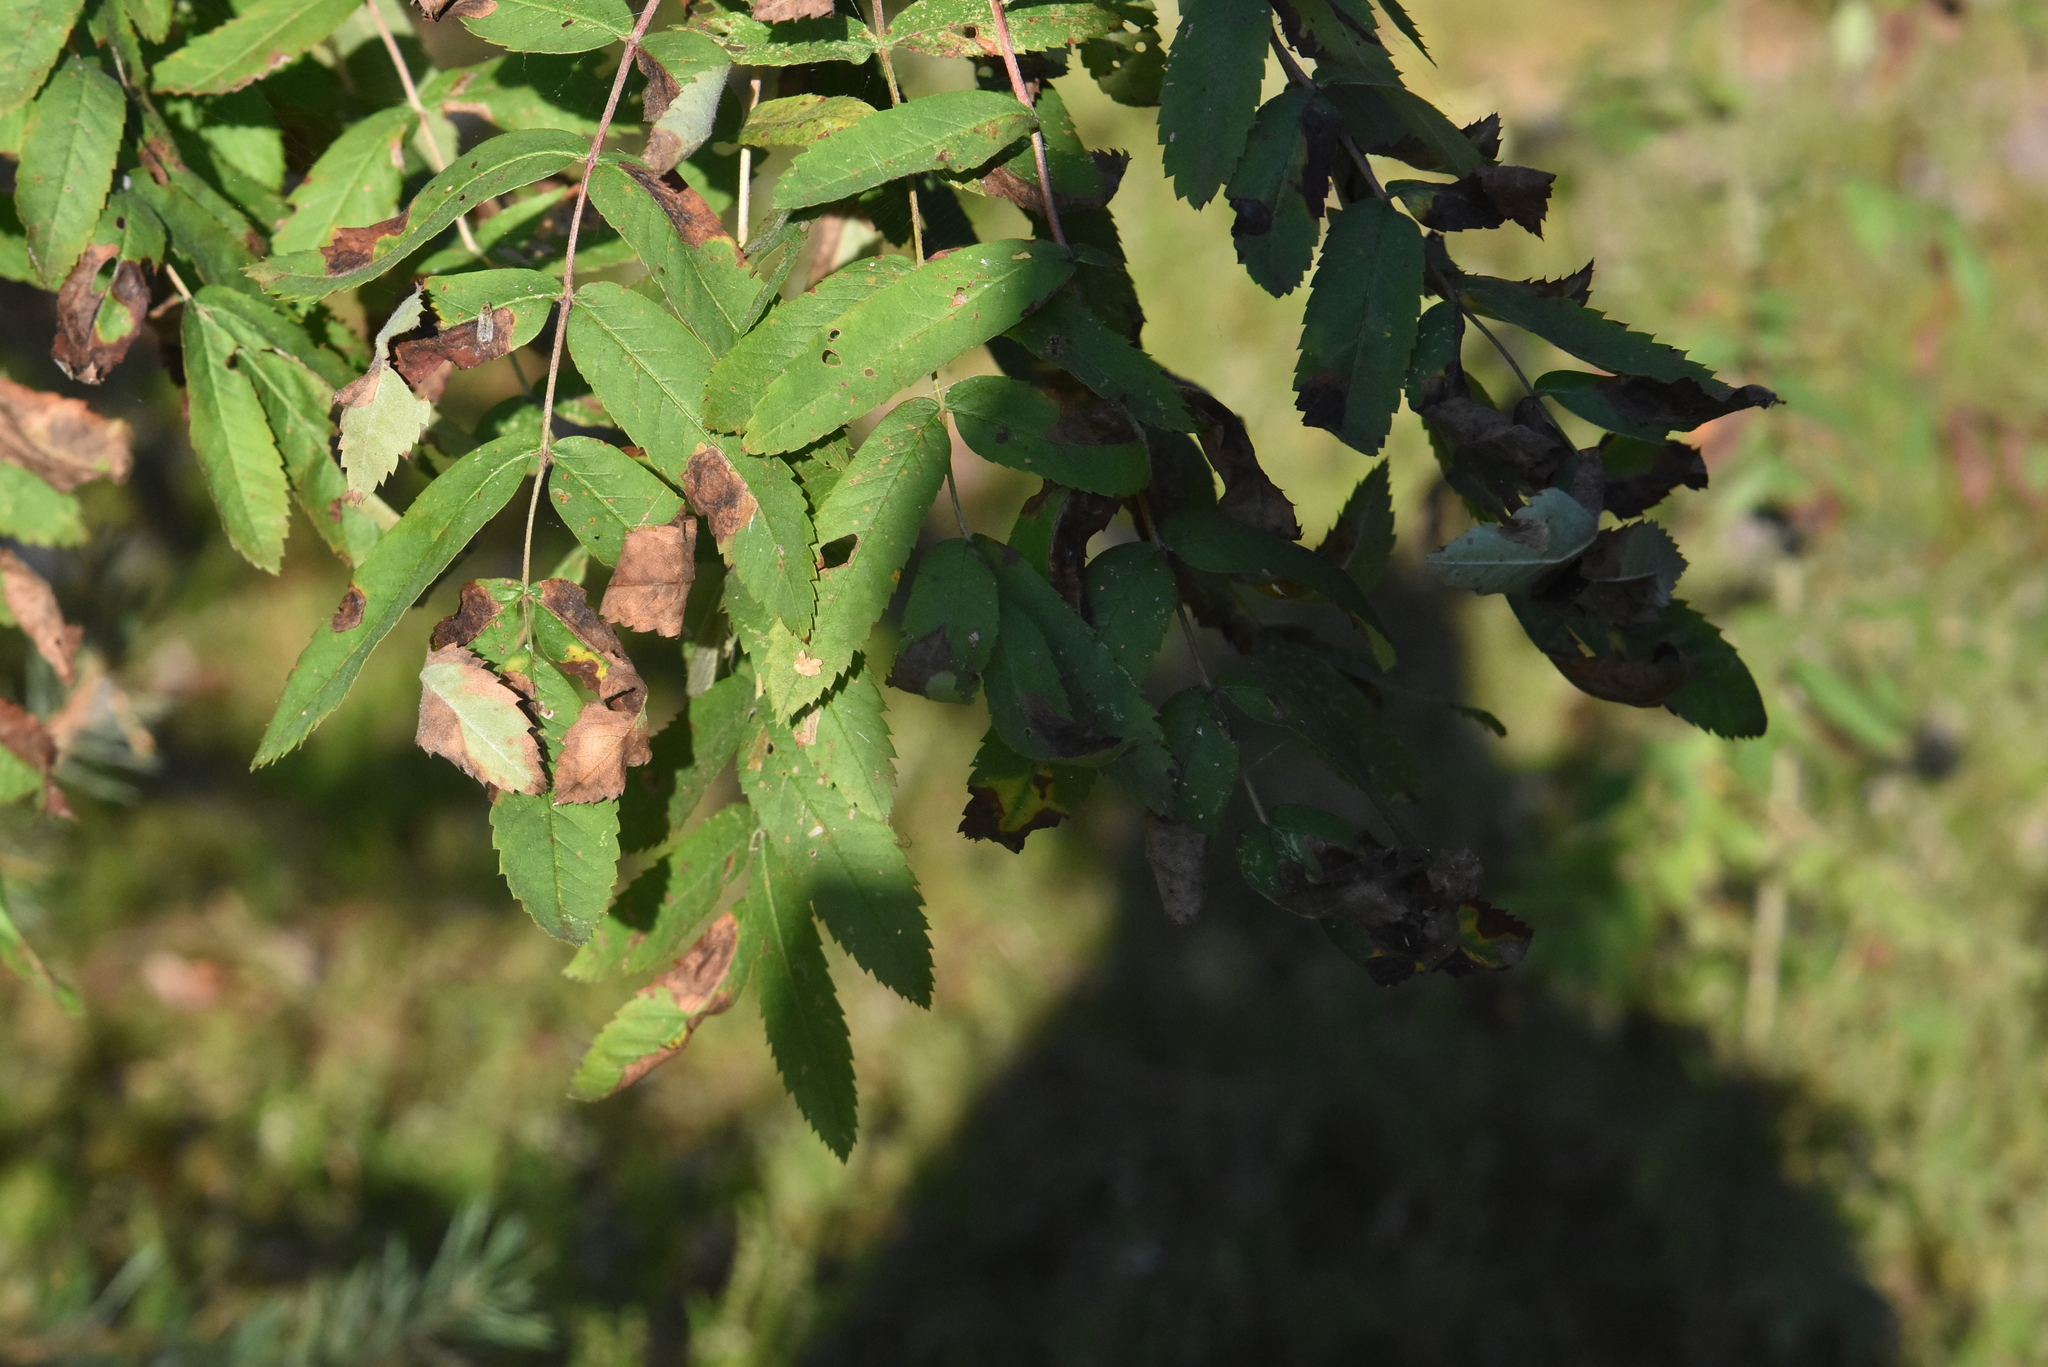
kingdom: Plantae
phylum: Tracheophyta
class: Magnoliopsida
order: Rosales
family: Rosaceae
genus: Sorbus
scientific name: Sorbus aucuparia
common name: Rowan
